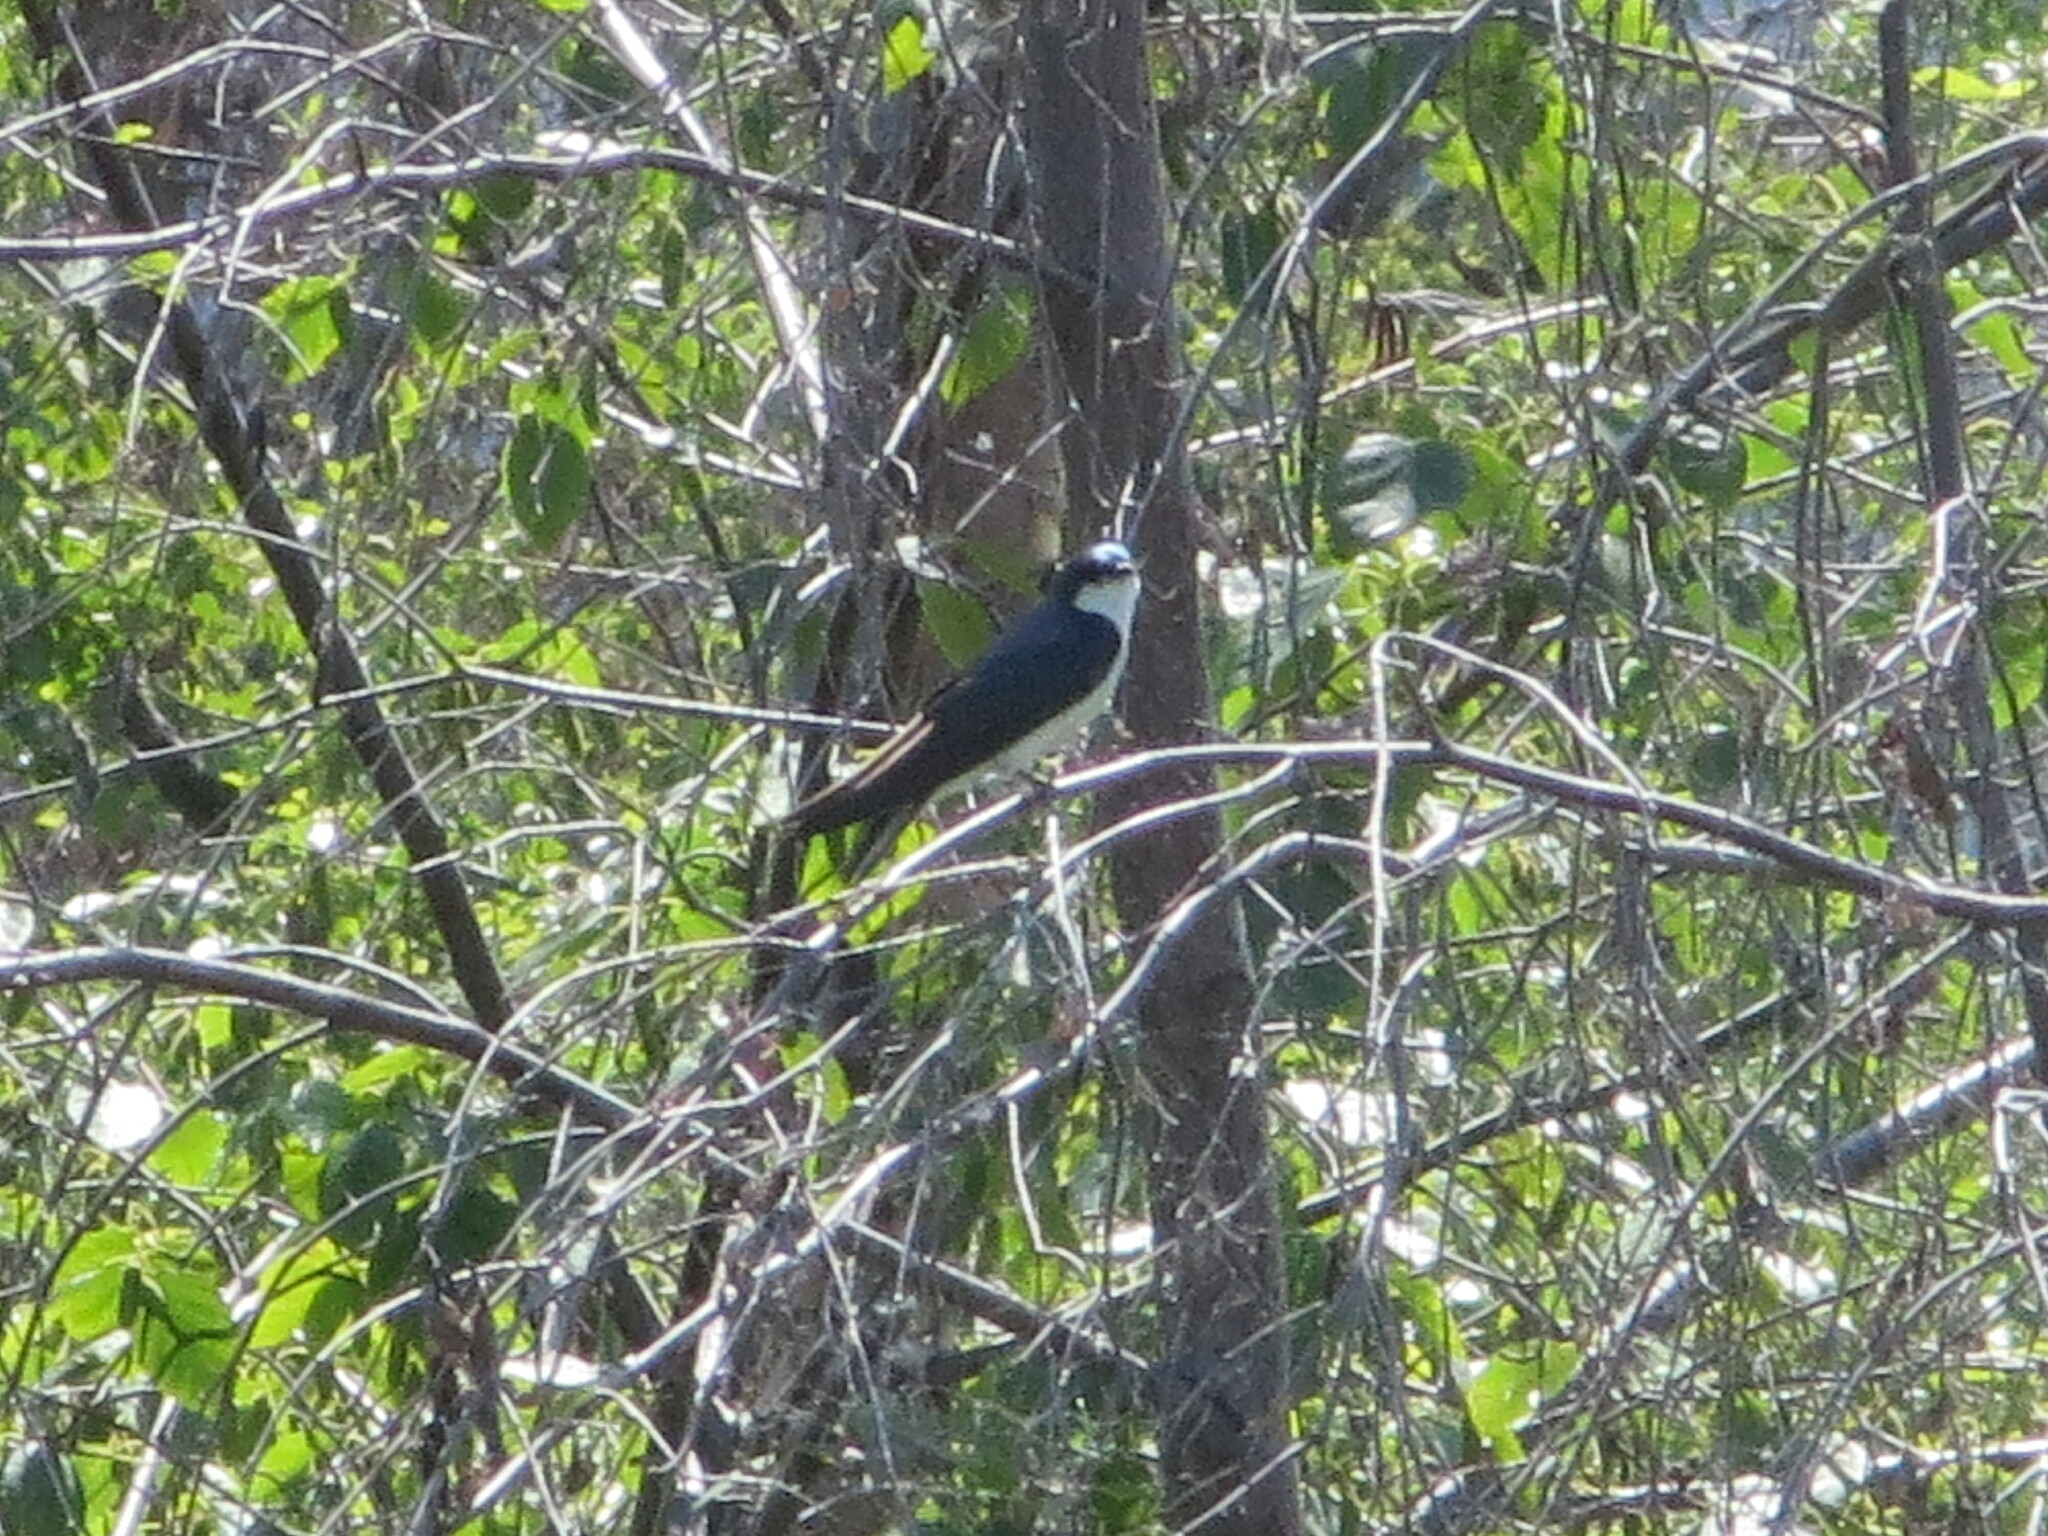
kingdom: Animalia
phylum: Chordata
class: Aves
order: Passeriformes
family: Hirundinidae
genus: Tachycineta
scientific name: Tachycineta bicolor
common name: Tree swallow
